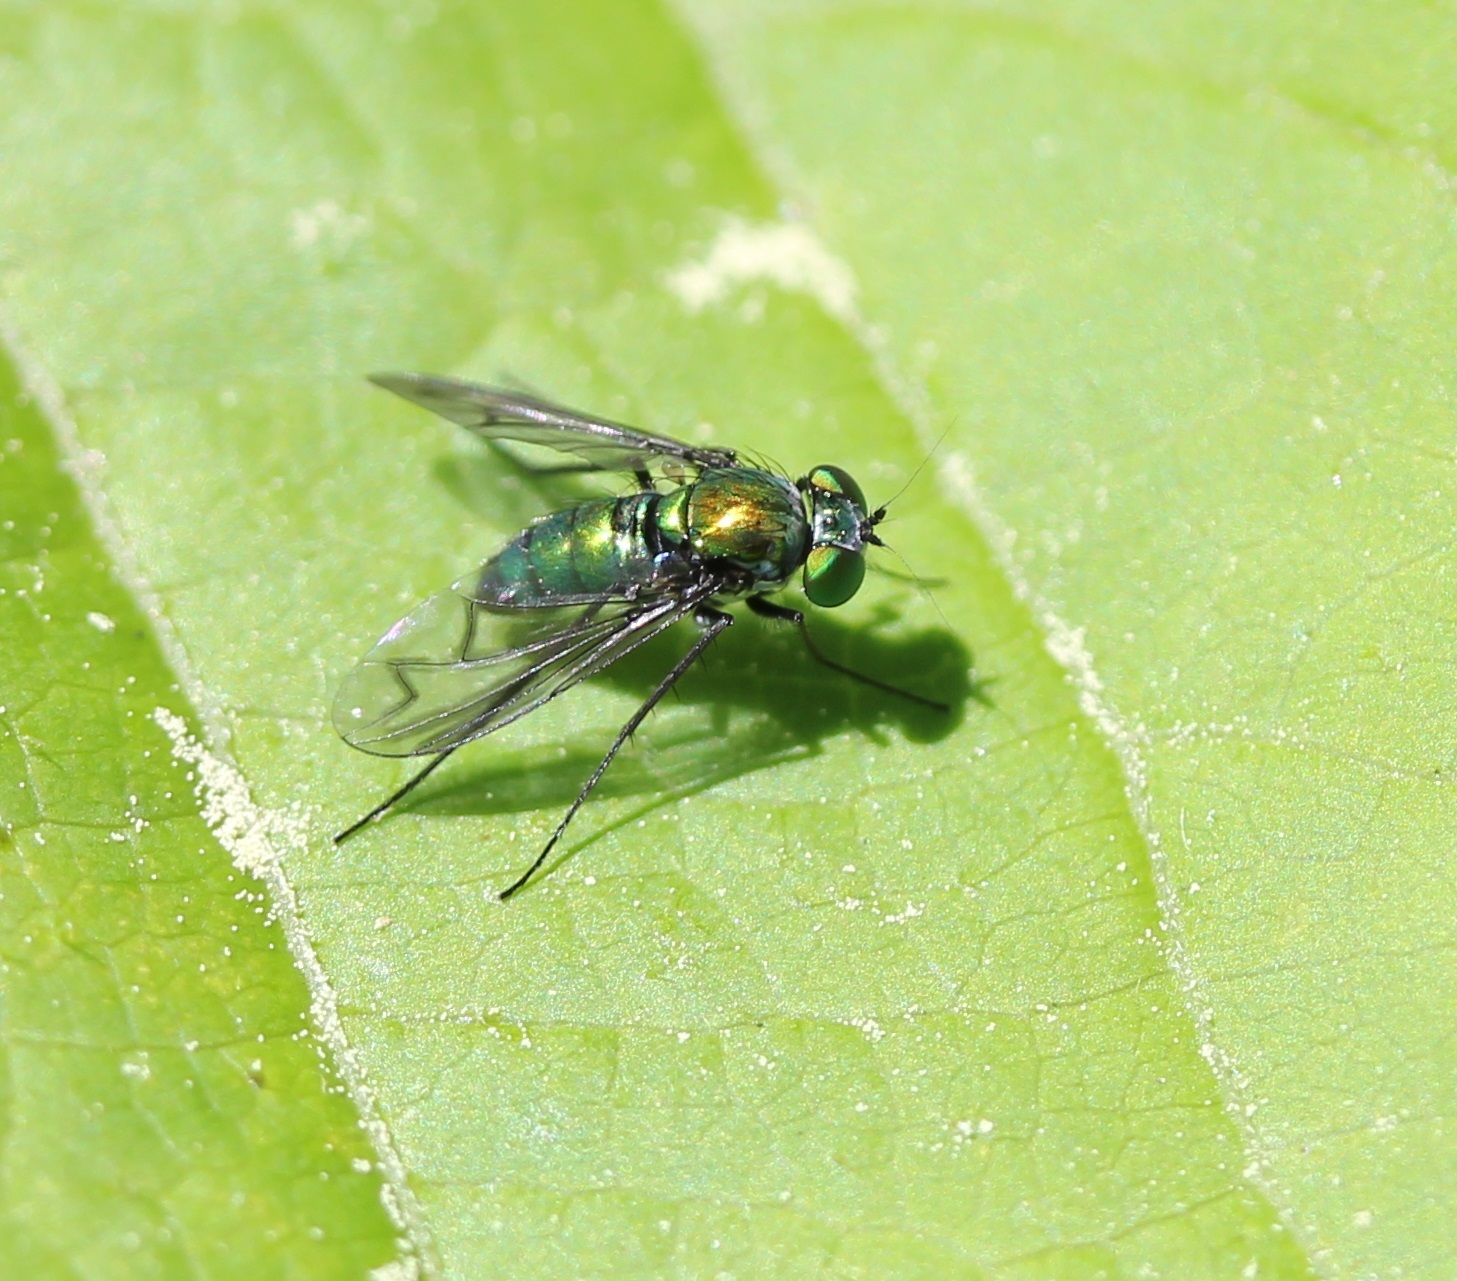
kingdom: Animalia
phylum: Arthropoda
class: Insecta
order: Diptera
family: Dolichopodidae
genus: Condylostylus
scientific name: Condylostylus patibulatus
